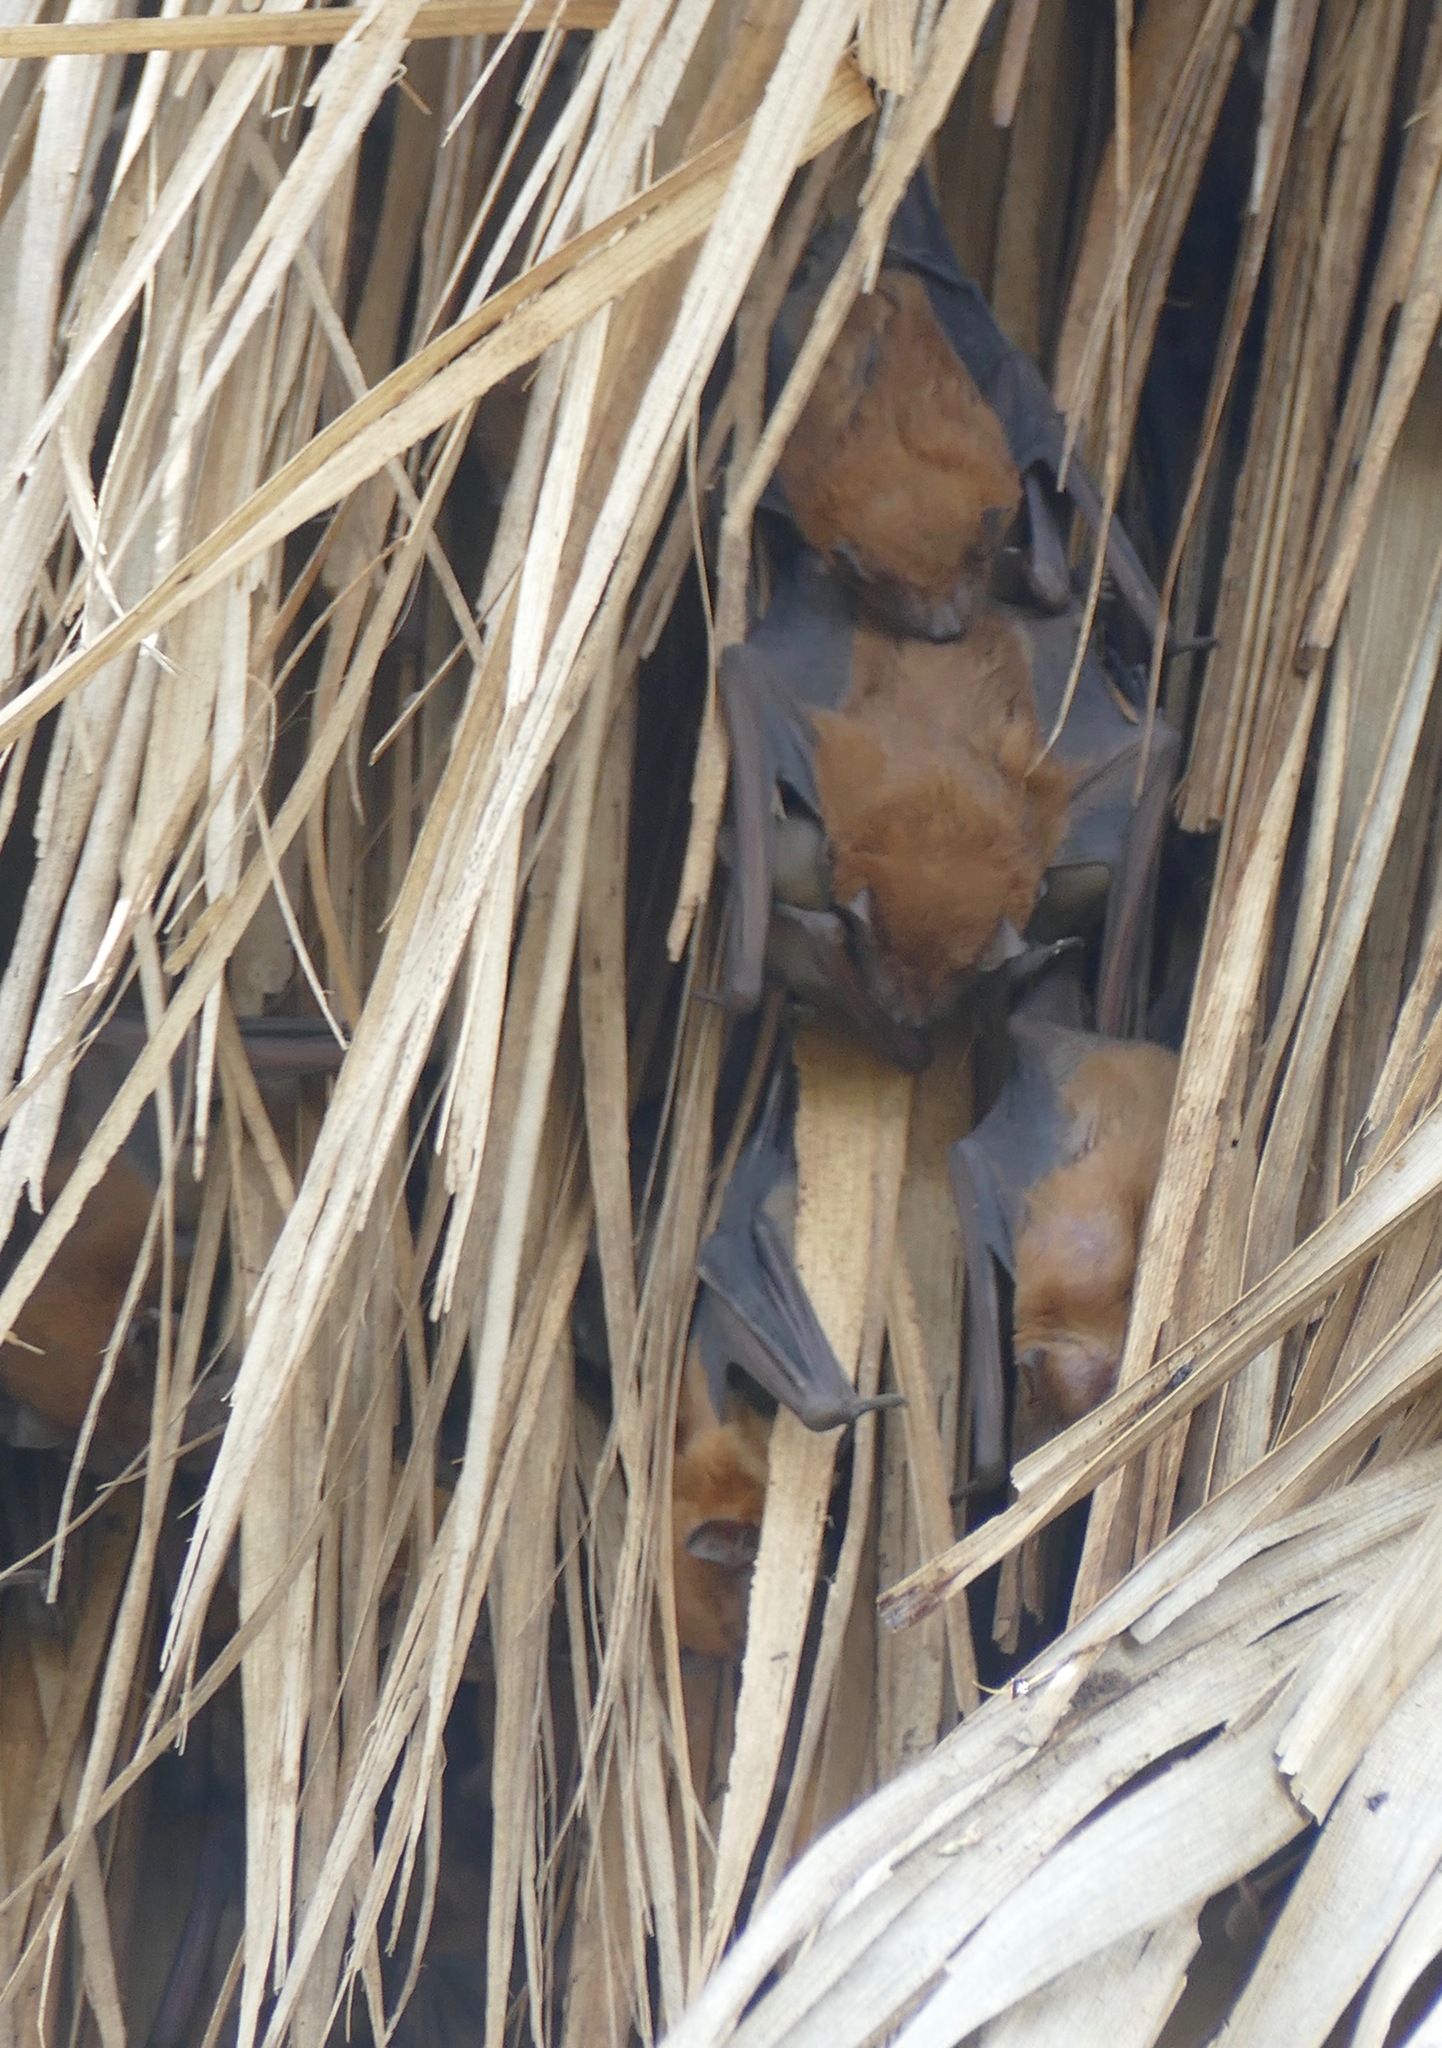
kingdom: Animalia
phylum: Chordata
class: Mammalia
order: Chiroptera
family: Vespertilionidae
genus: Scotophilus
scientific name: Scotophilus kuhlii
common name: Lesser asiatic yellow house bat
